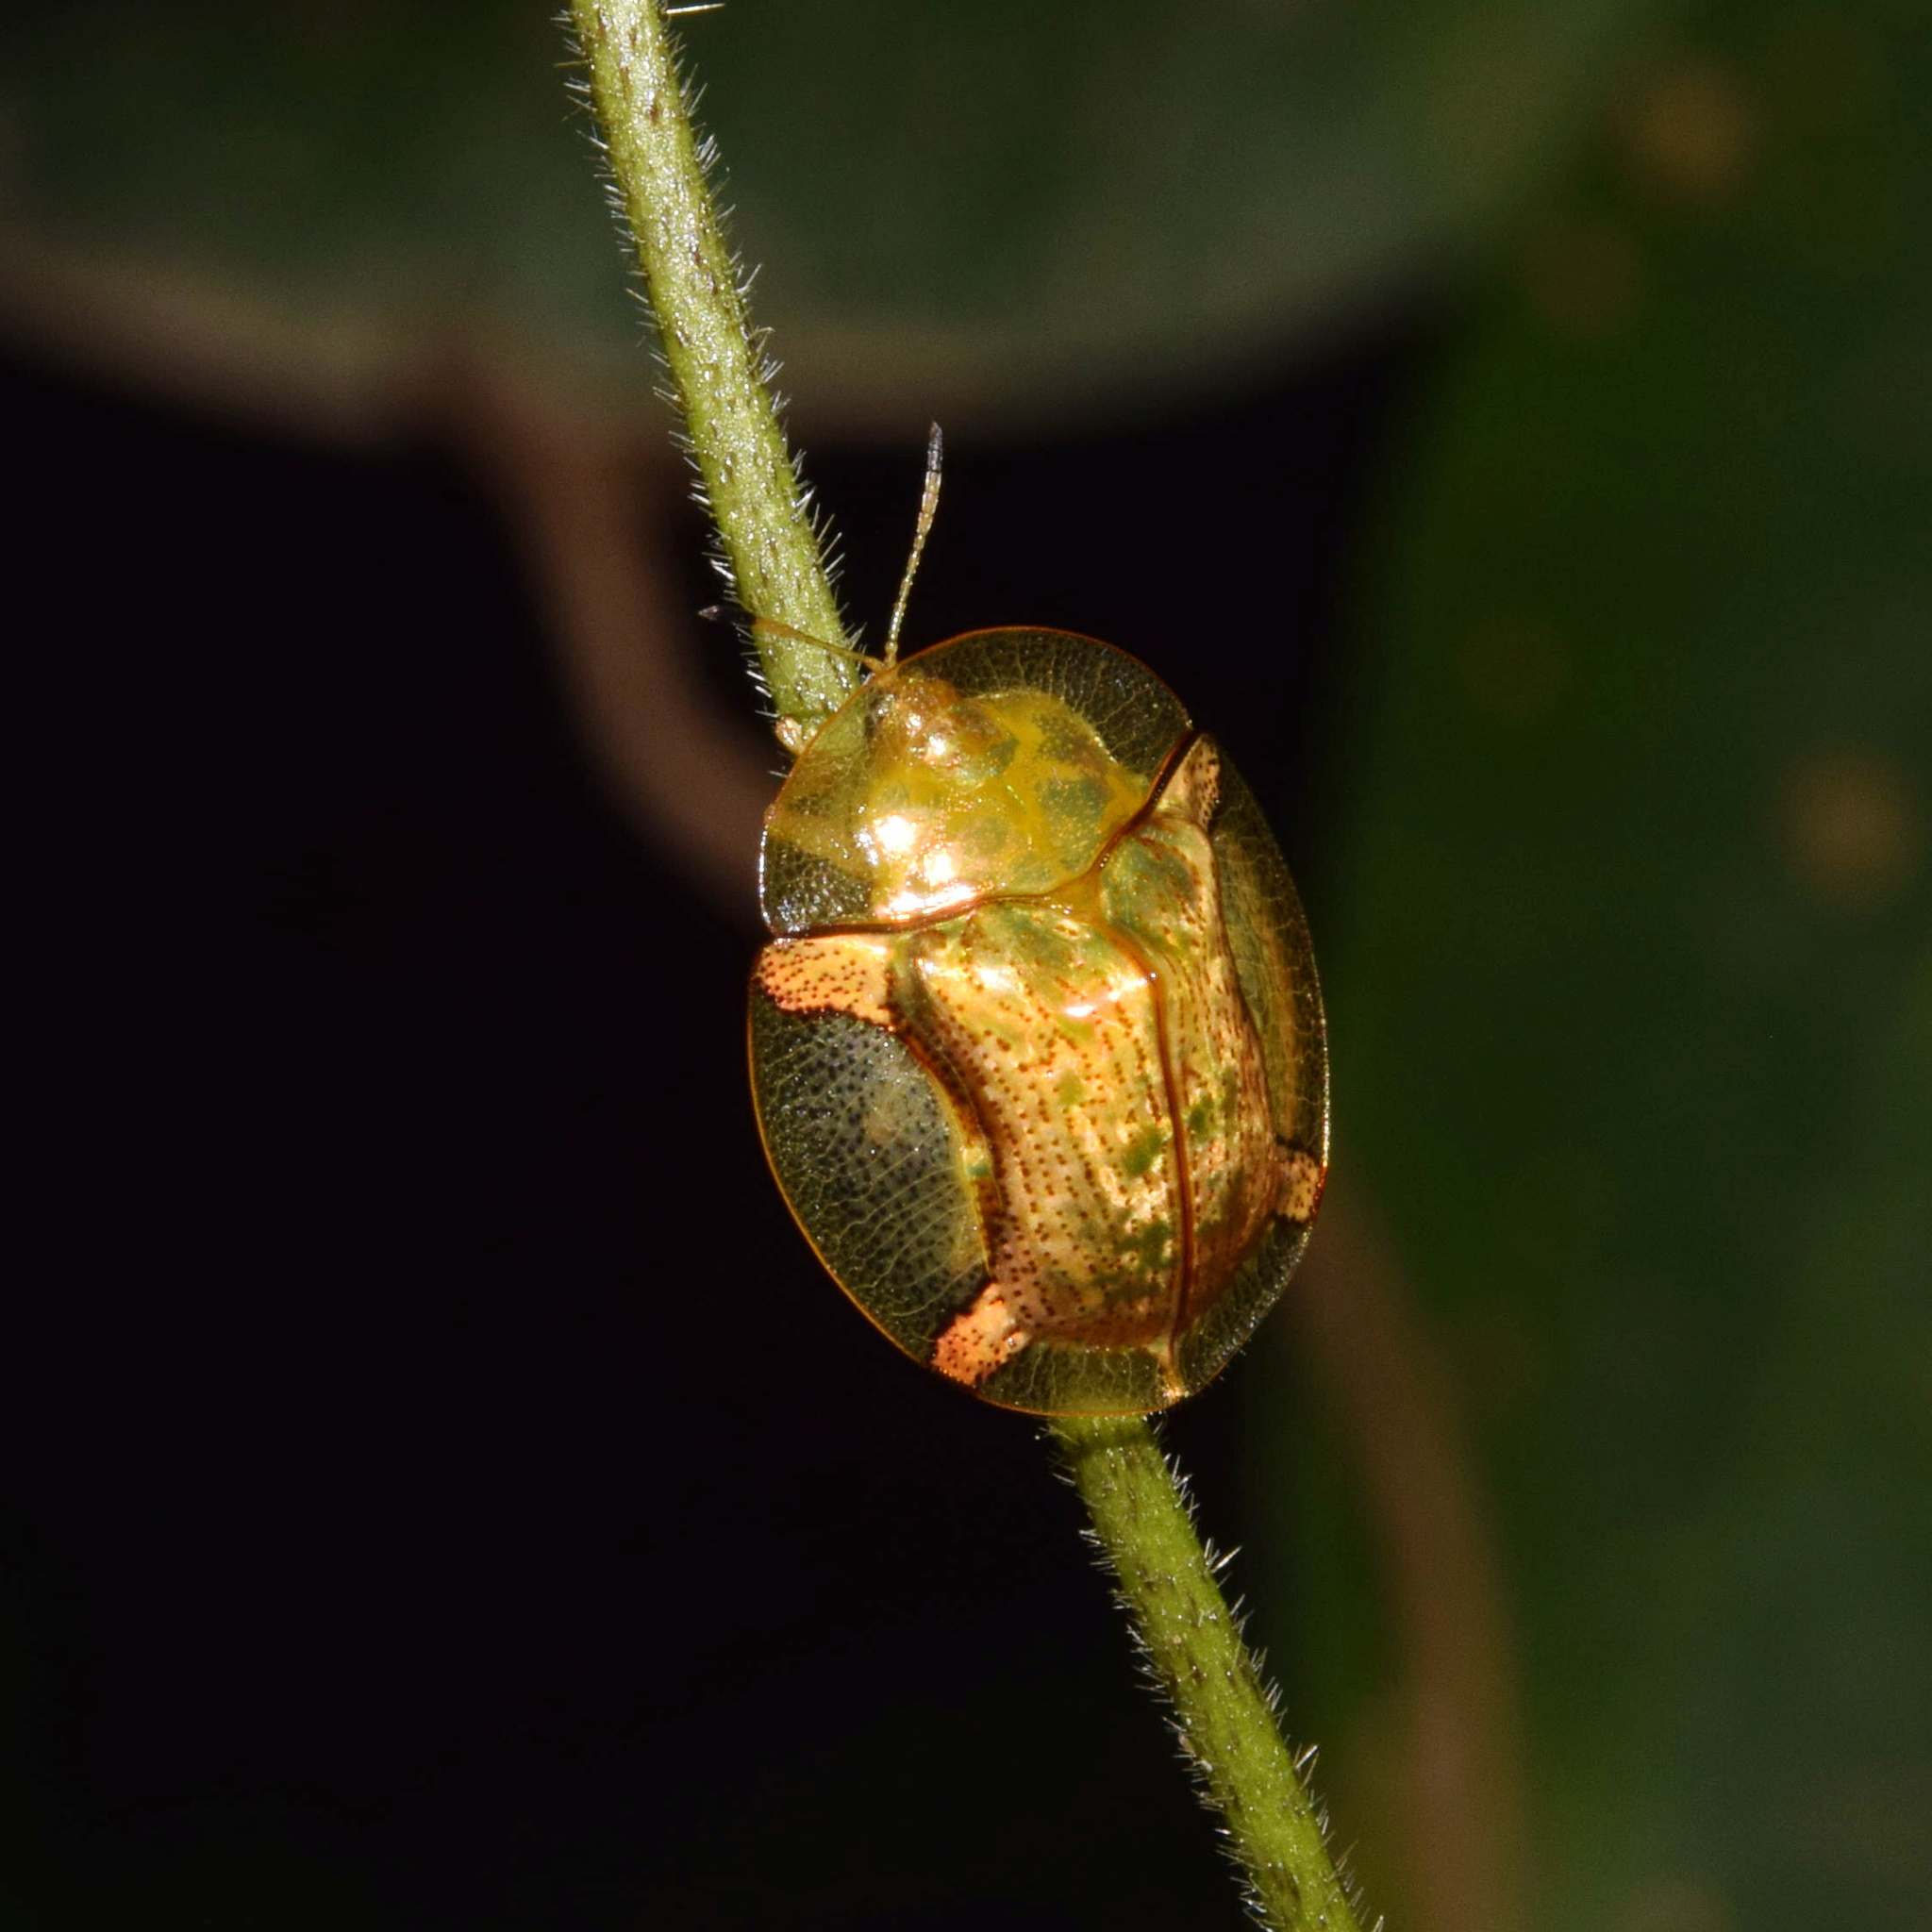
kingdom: Animalia
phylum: Arthropoda
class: Insecta
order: Coleoptera
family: Chrysomelidae
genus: Aspidimorpha
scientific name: Aspidimorpha quadriremis
